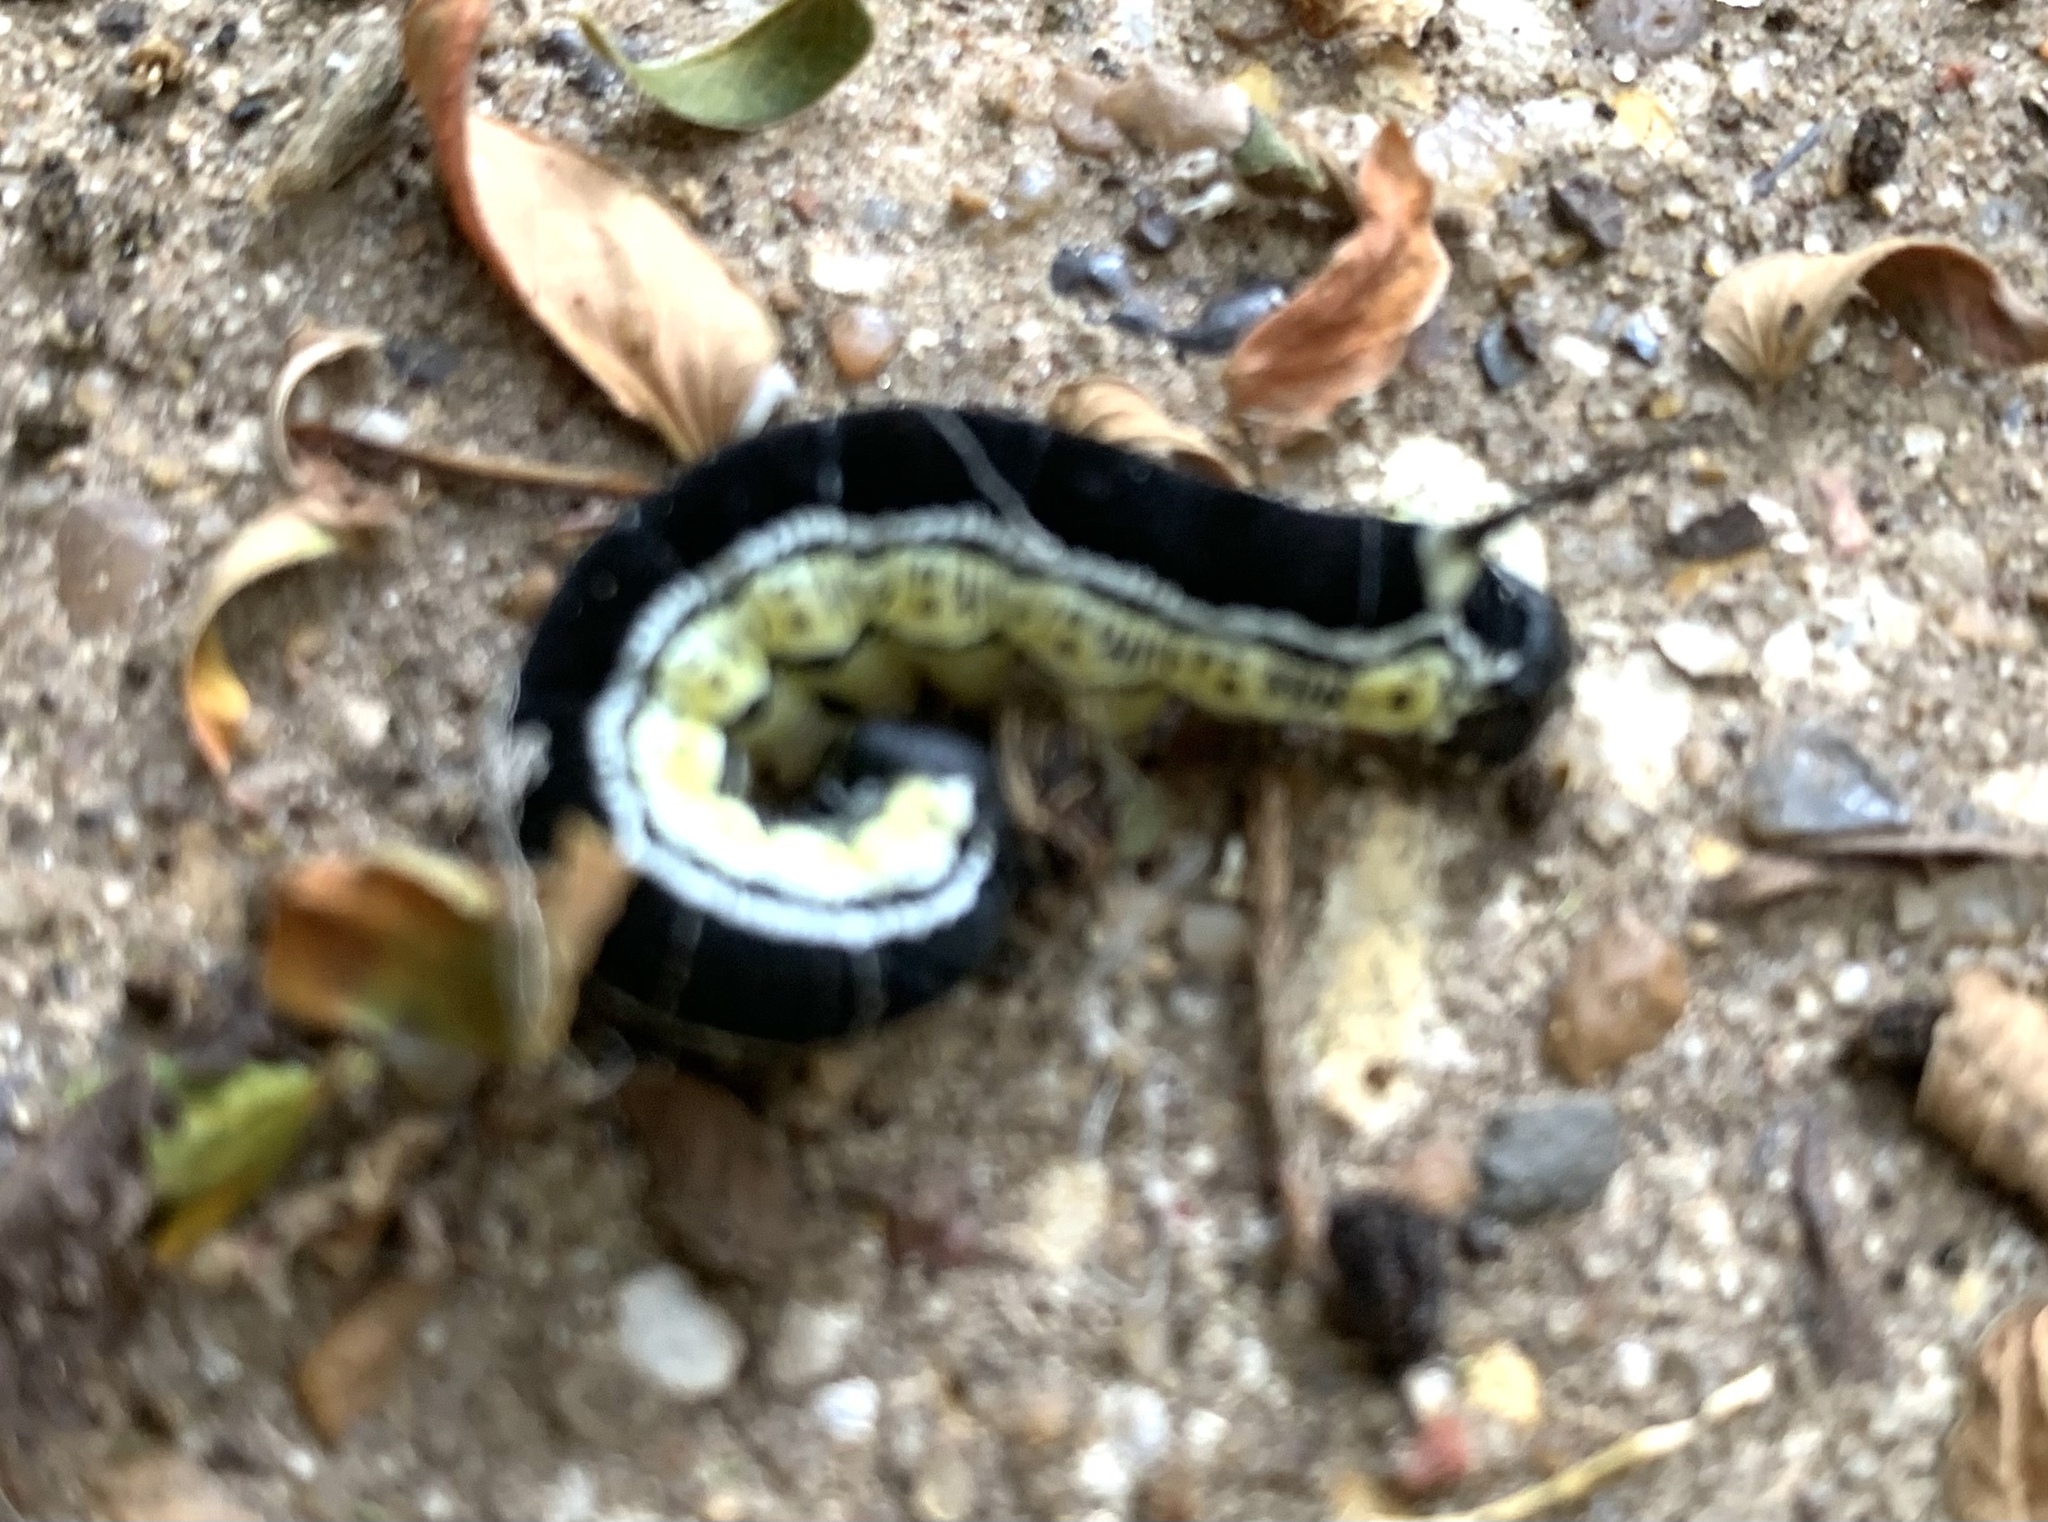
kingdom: Animalia
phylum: Arthropoda
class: Insecta
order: Lepidoptera
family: Sphingidae
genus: Ceratomia
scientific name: Ceratomia catalpae
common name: Catalpa hornworm
